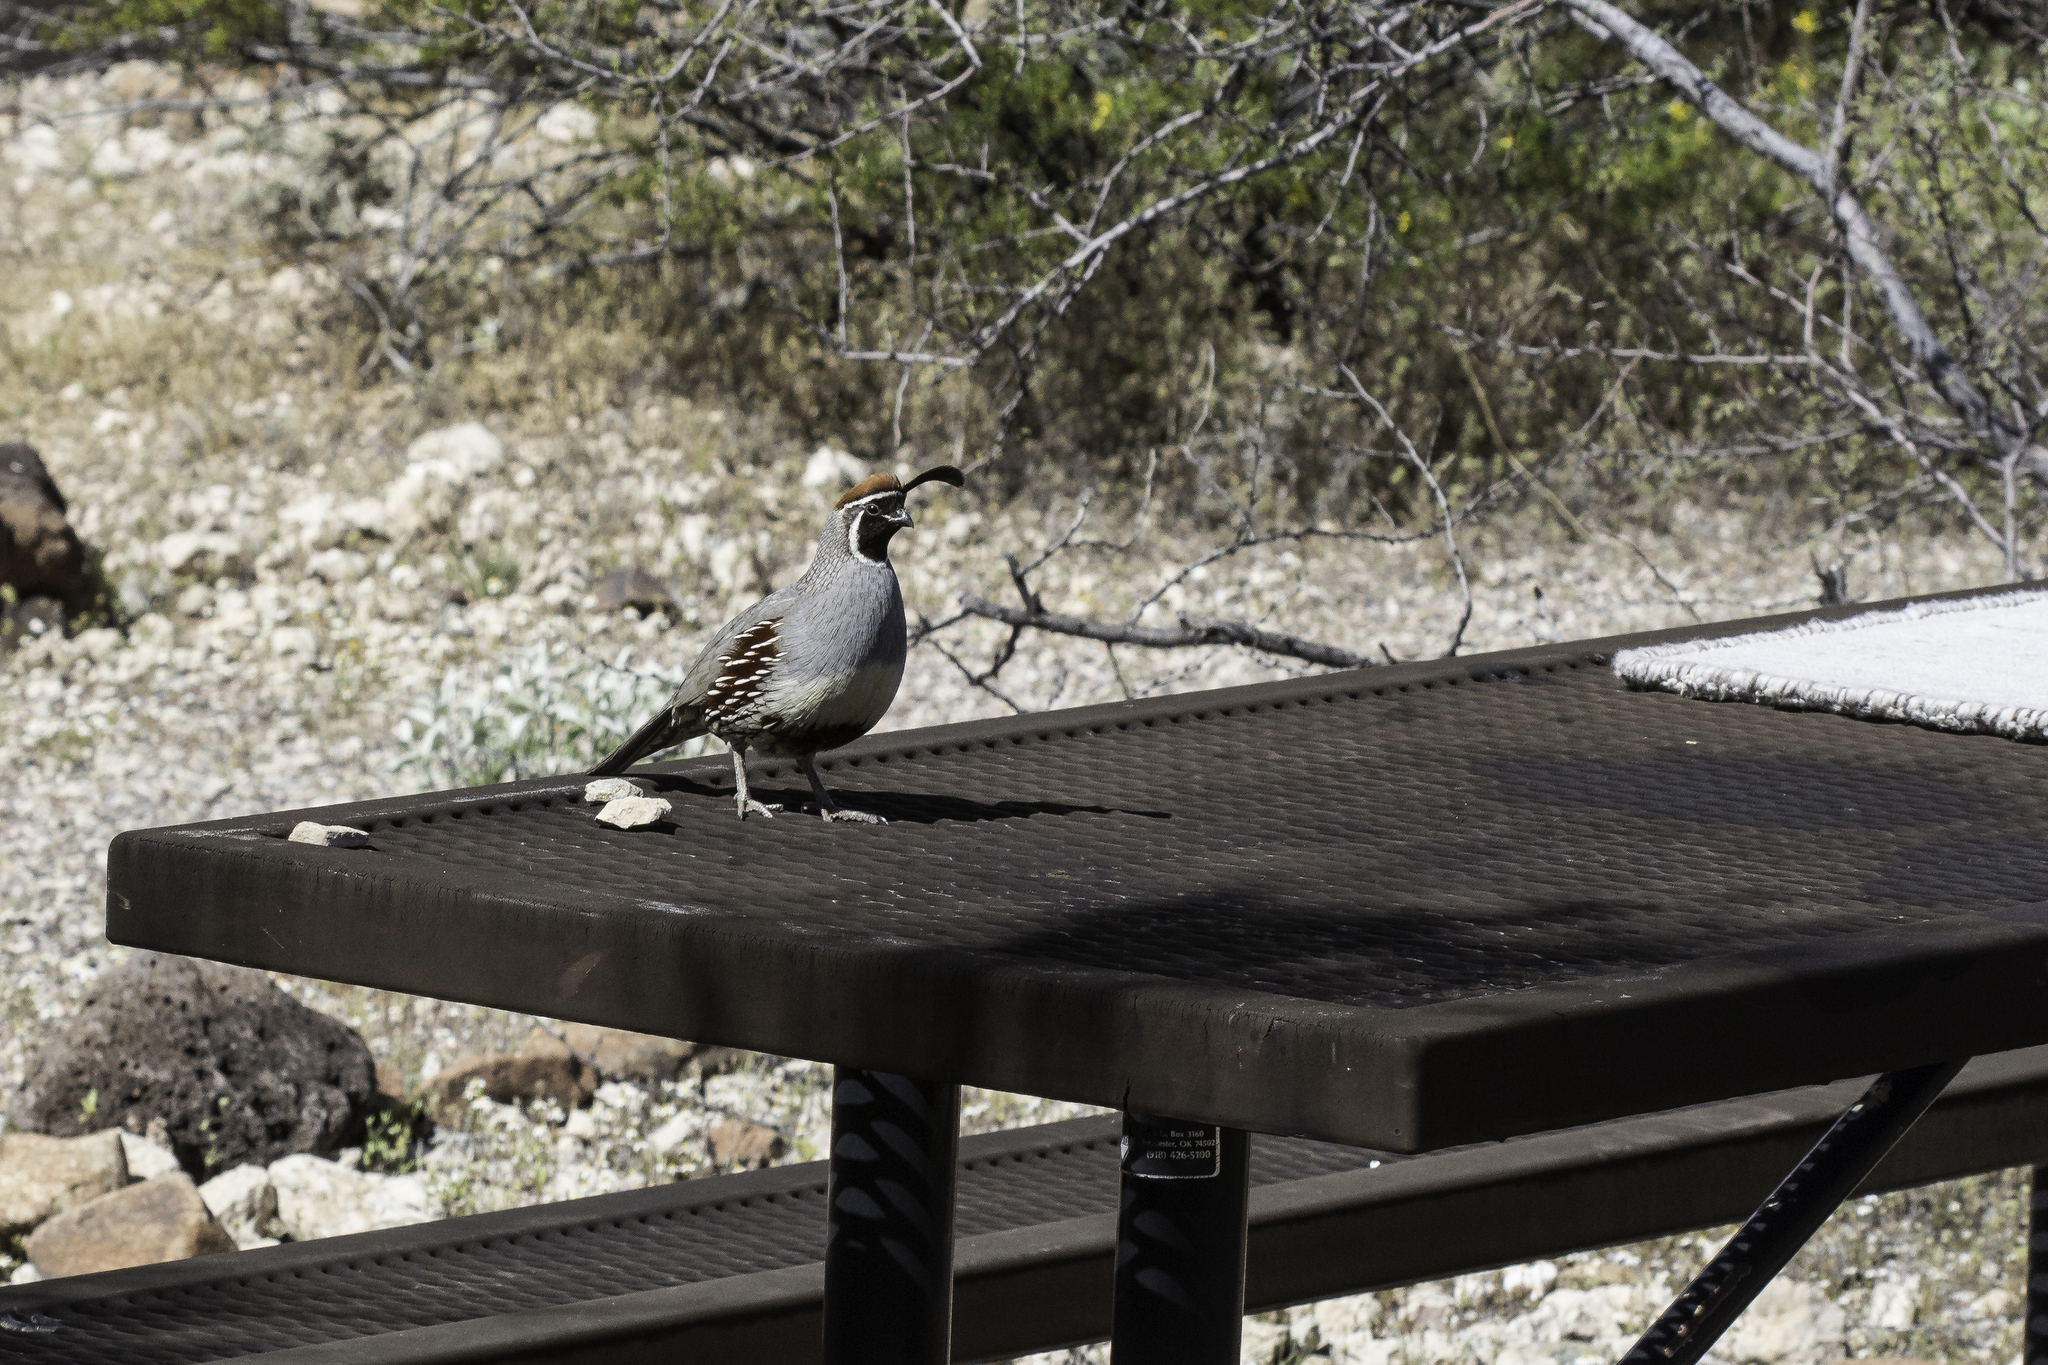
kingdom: Animalia
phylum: Chordata
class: Aves
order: Galliformes
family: Odontophoridae
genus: Callipepla
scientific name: Callipepla gambelii
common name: Gambel's quail
